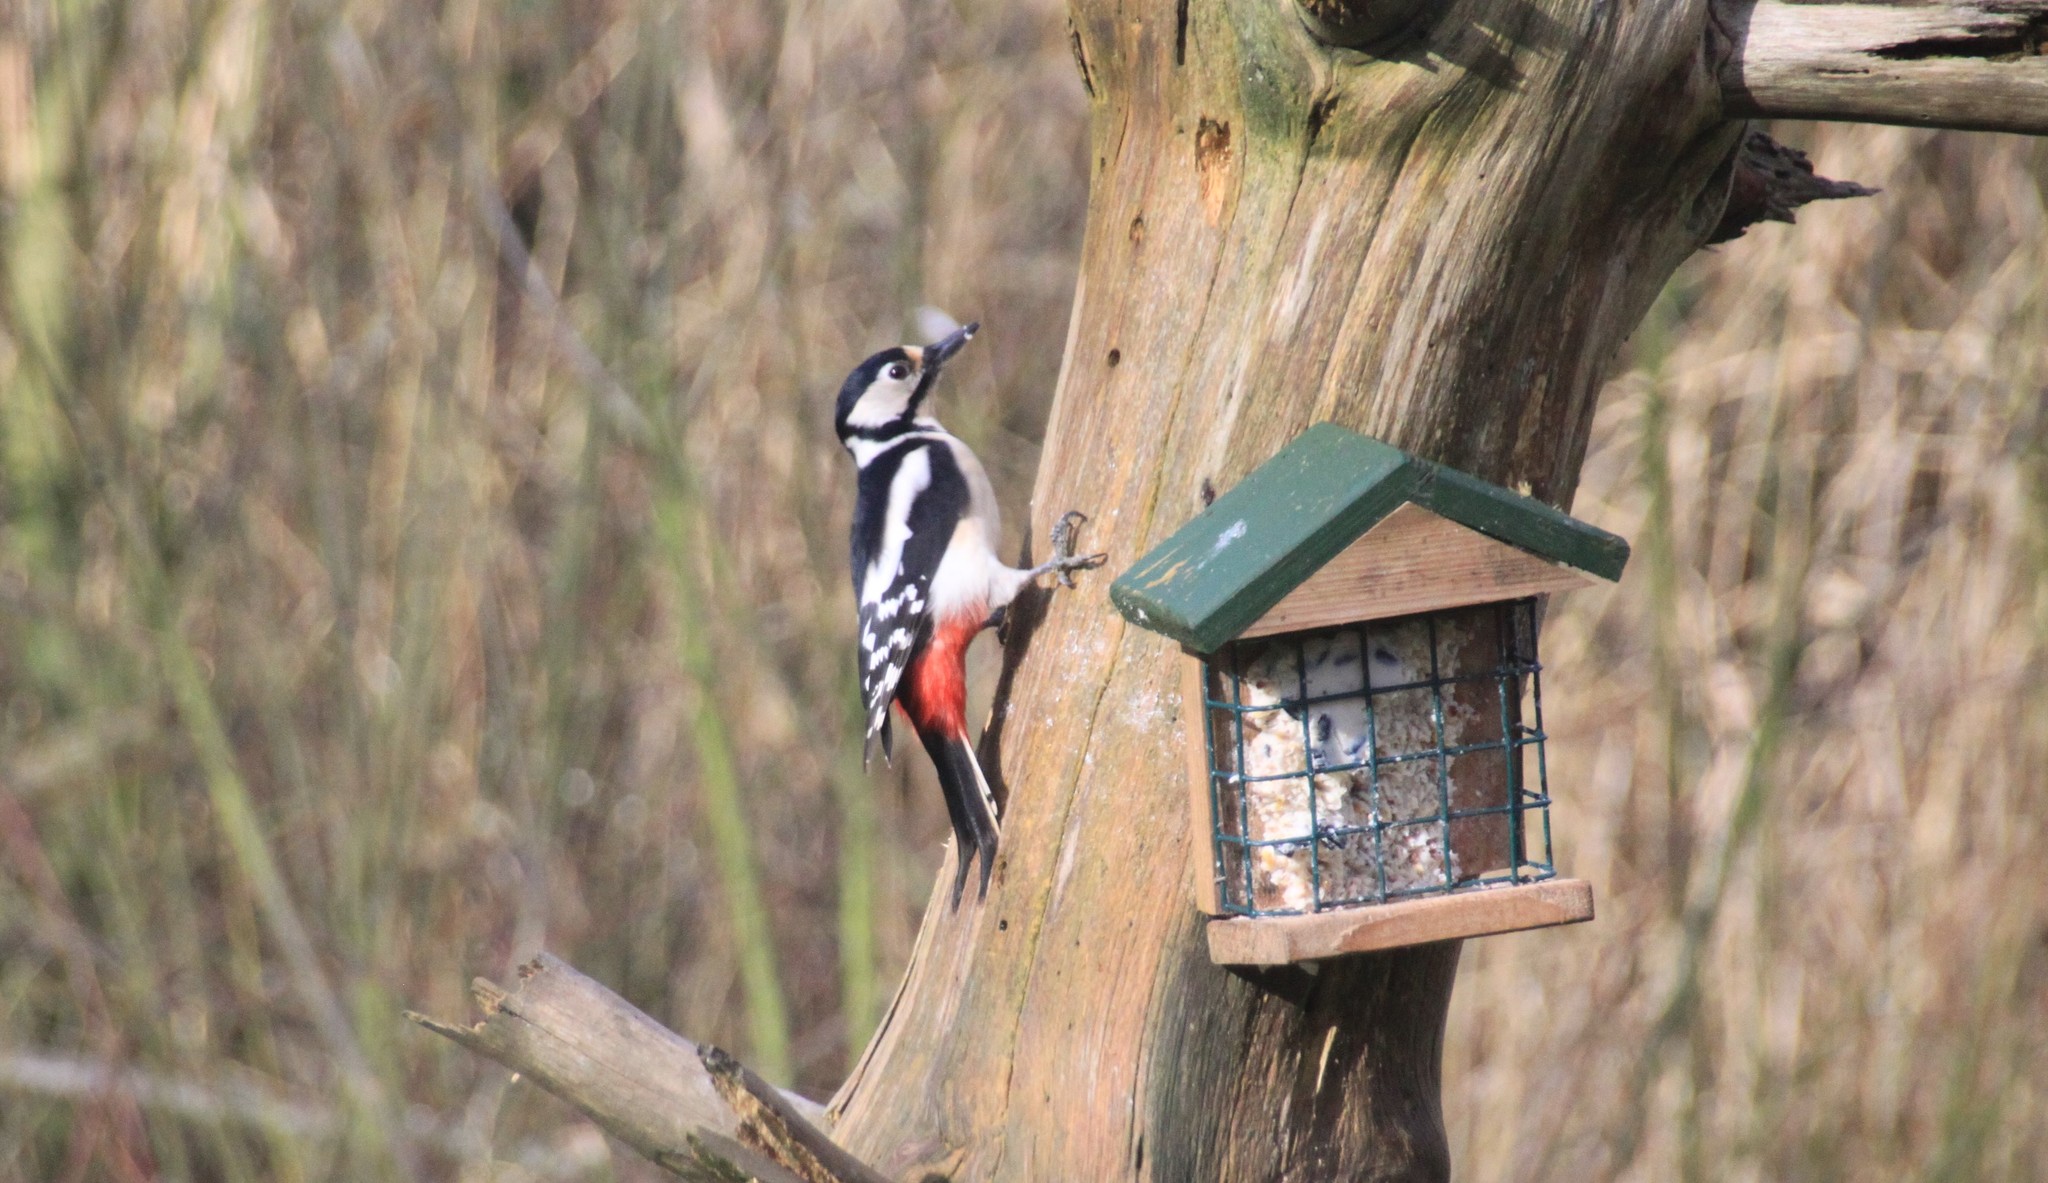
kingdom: Animalia
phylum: Chordata
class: Aves
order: Piciformes
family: Picidae
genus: Dendrocopos
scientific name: Dendrocopos major
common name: Great spotted woodpecker
